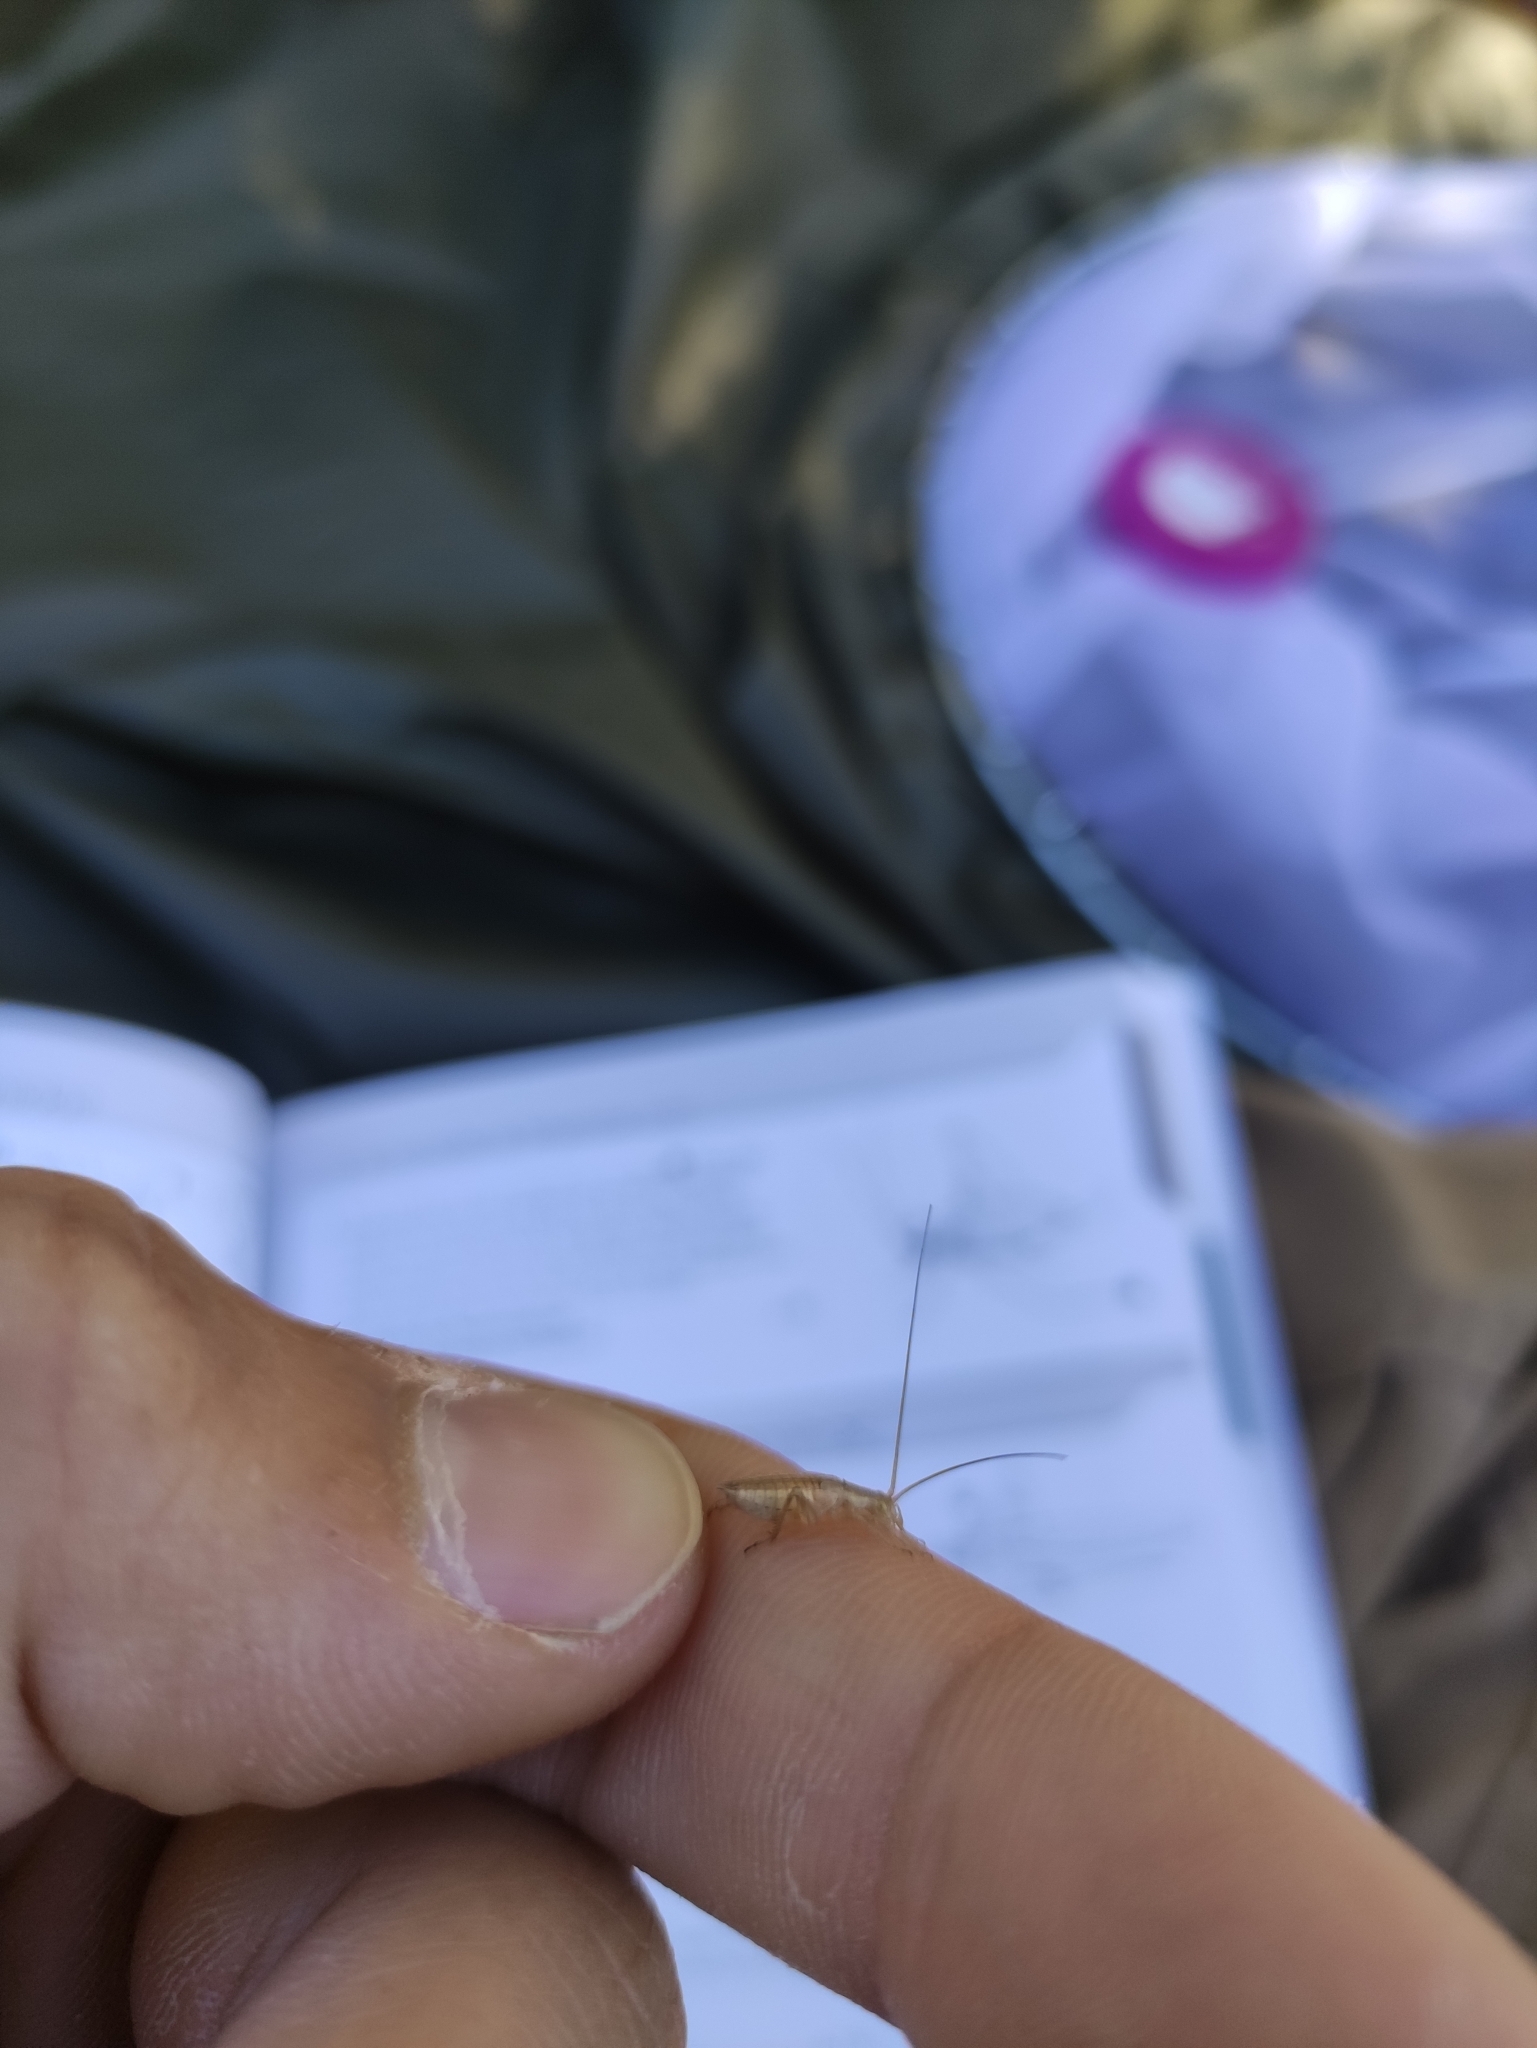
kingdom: Animalia
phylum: Arthropoda
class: Insecta
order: Orthoptera
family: Gryllidae
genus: Oecanthus
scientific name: Oecanthus pellucens
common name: Tree-cricket
